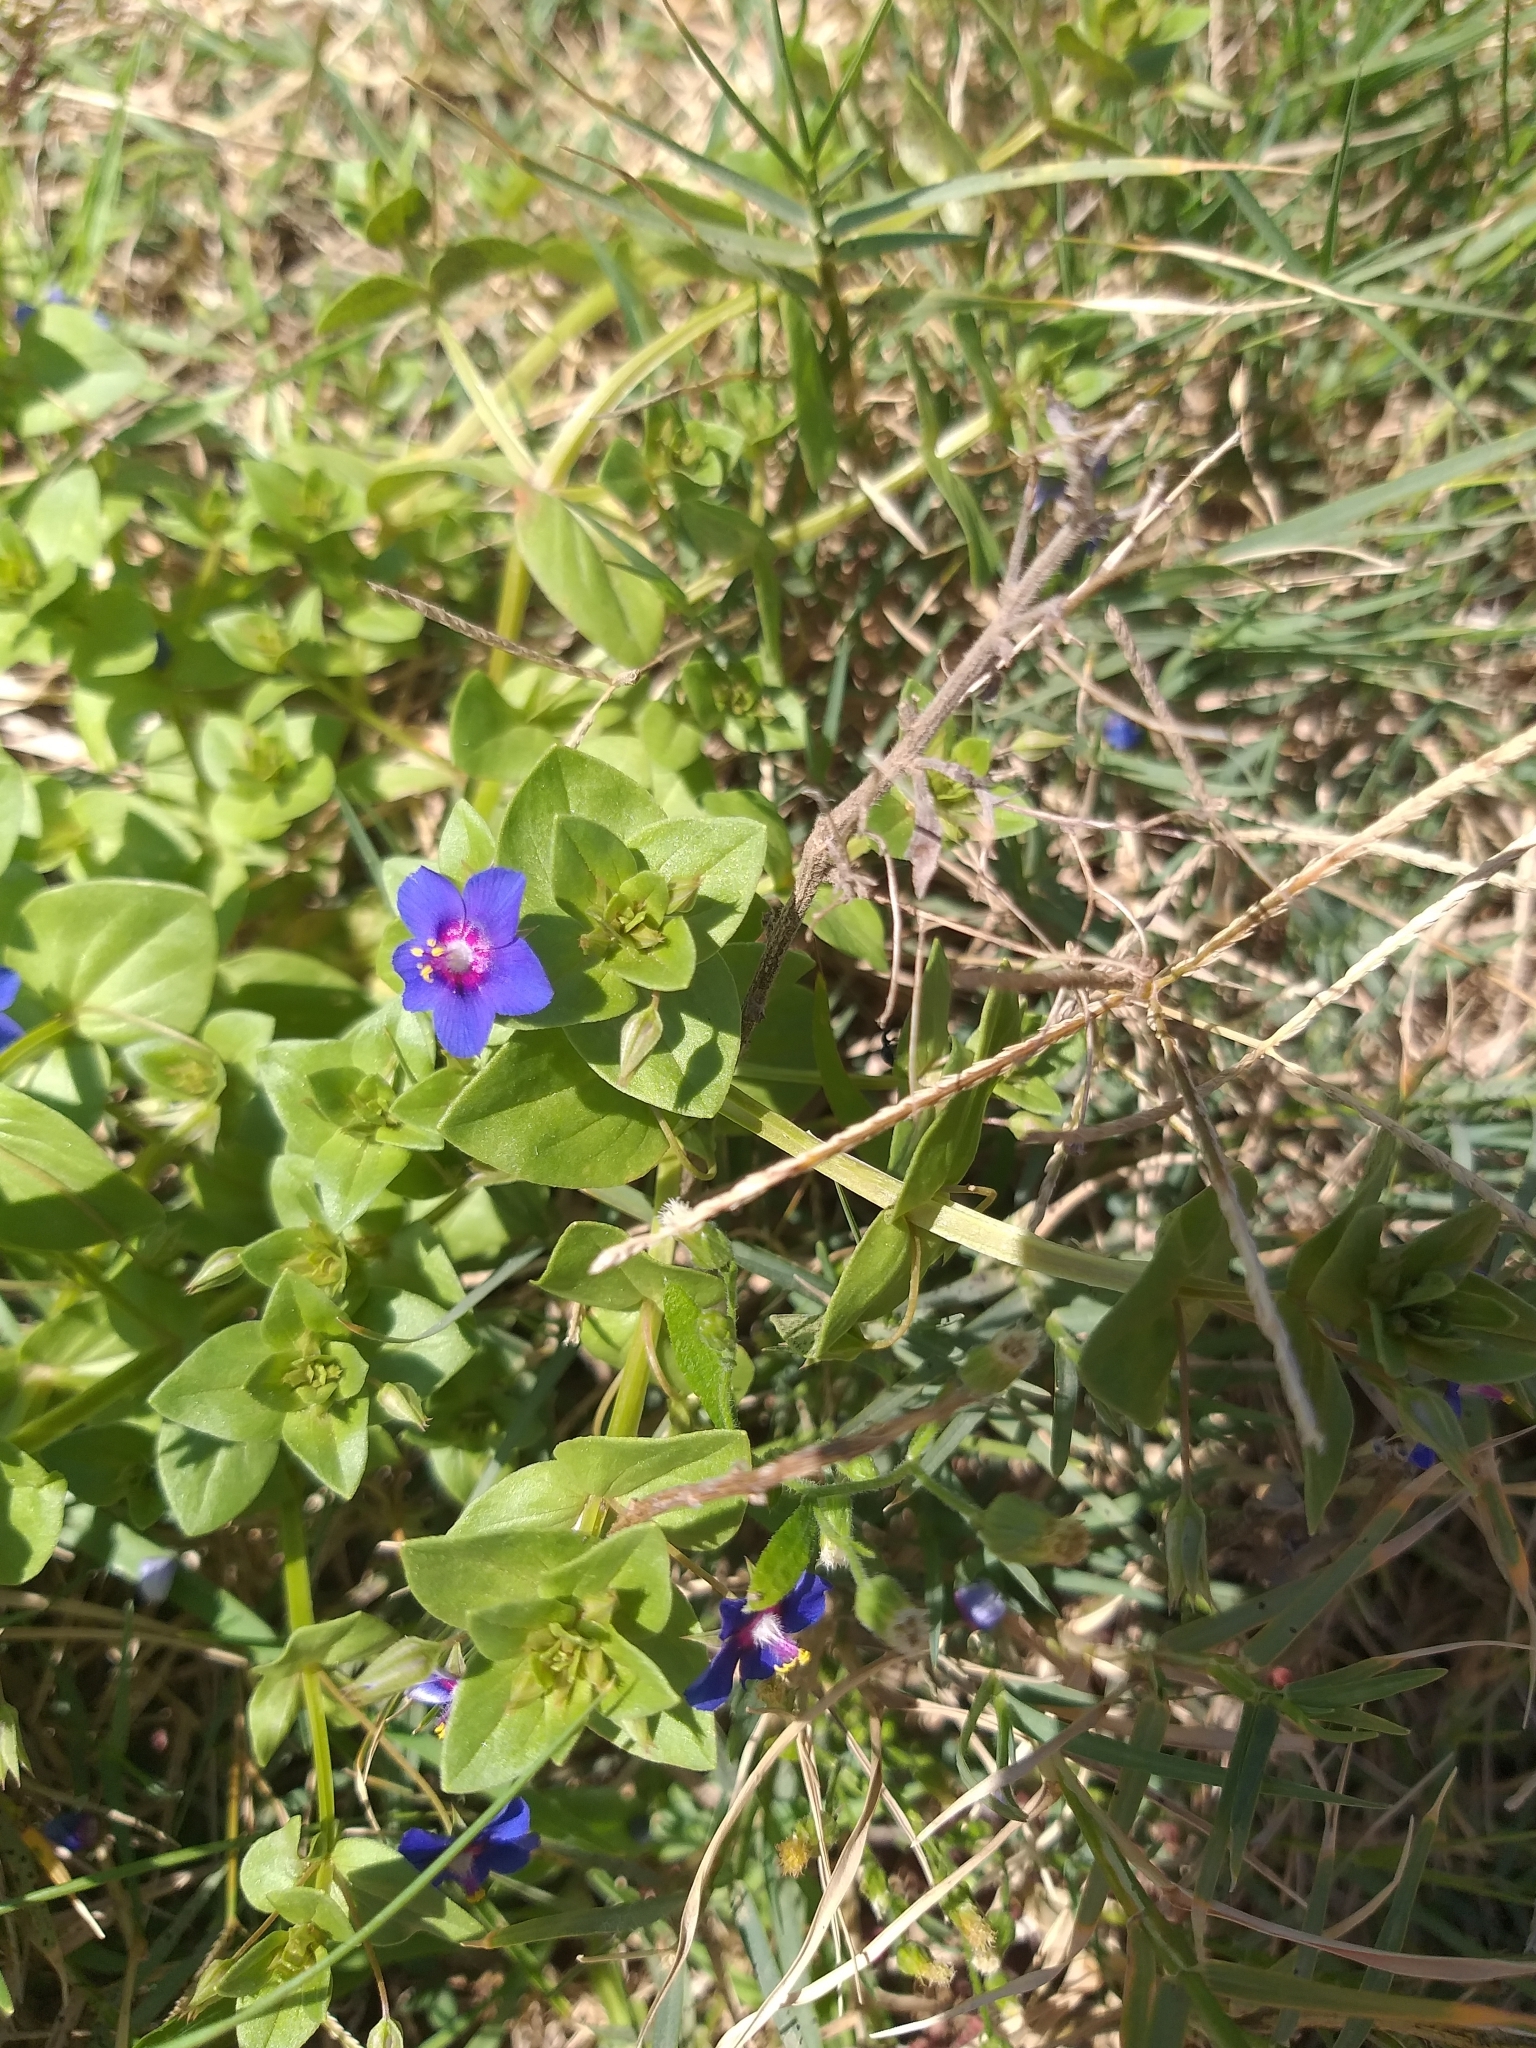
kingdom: Plantae
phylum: Tracheophyta
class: Magnoliopsida
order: Ericales
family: Primulaceae
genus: Lysimachia
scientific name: Lysimachia loeflingii
